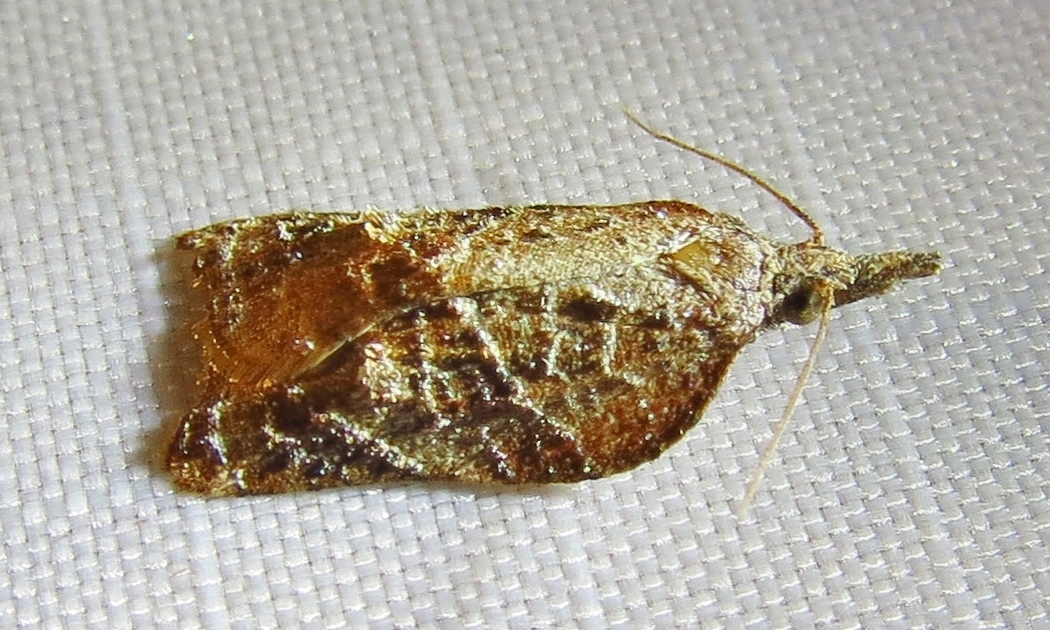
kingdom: Animalia
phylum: Arthropoda
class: Insecta
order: Lepidoptera
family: Tortricidae
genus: Platynota
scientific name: Platynota rostrana
